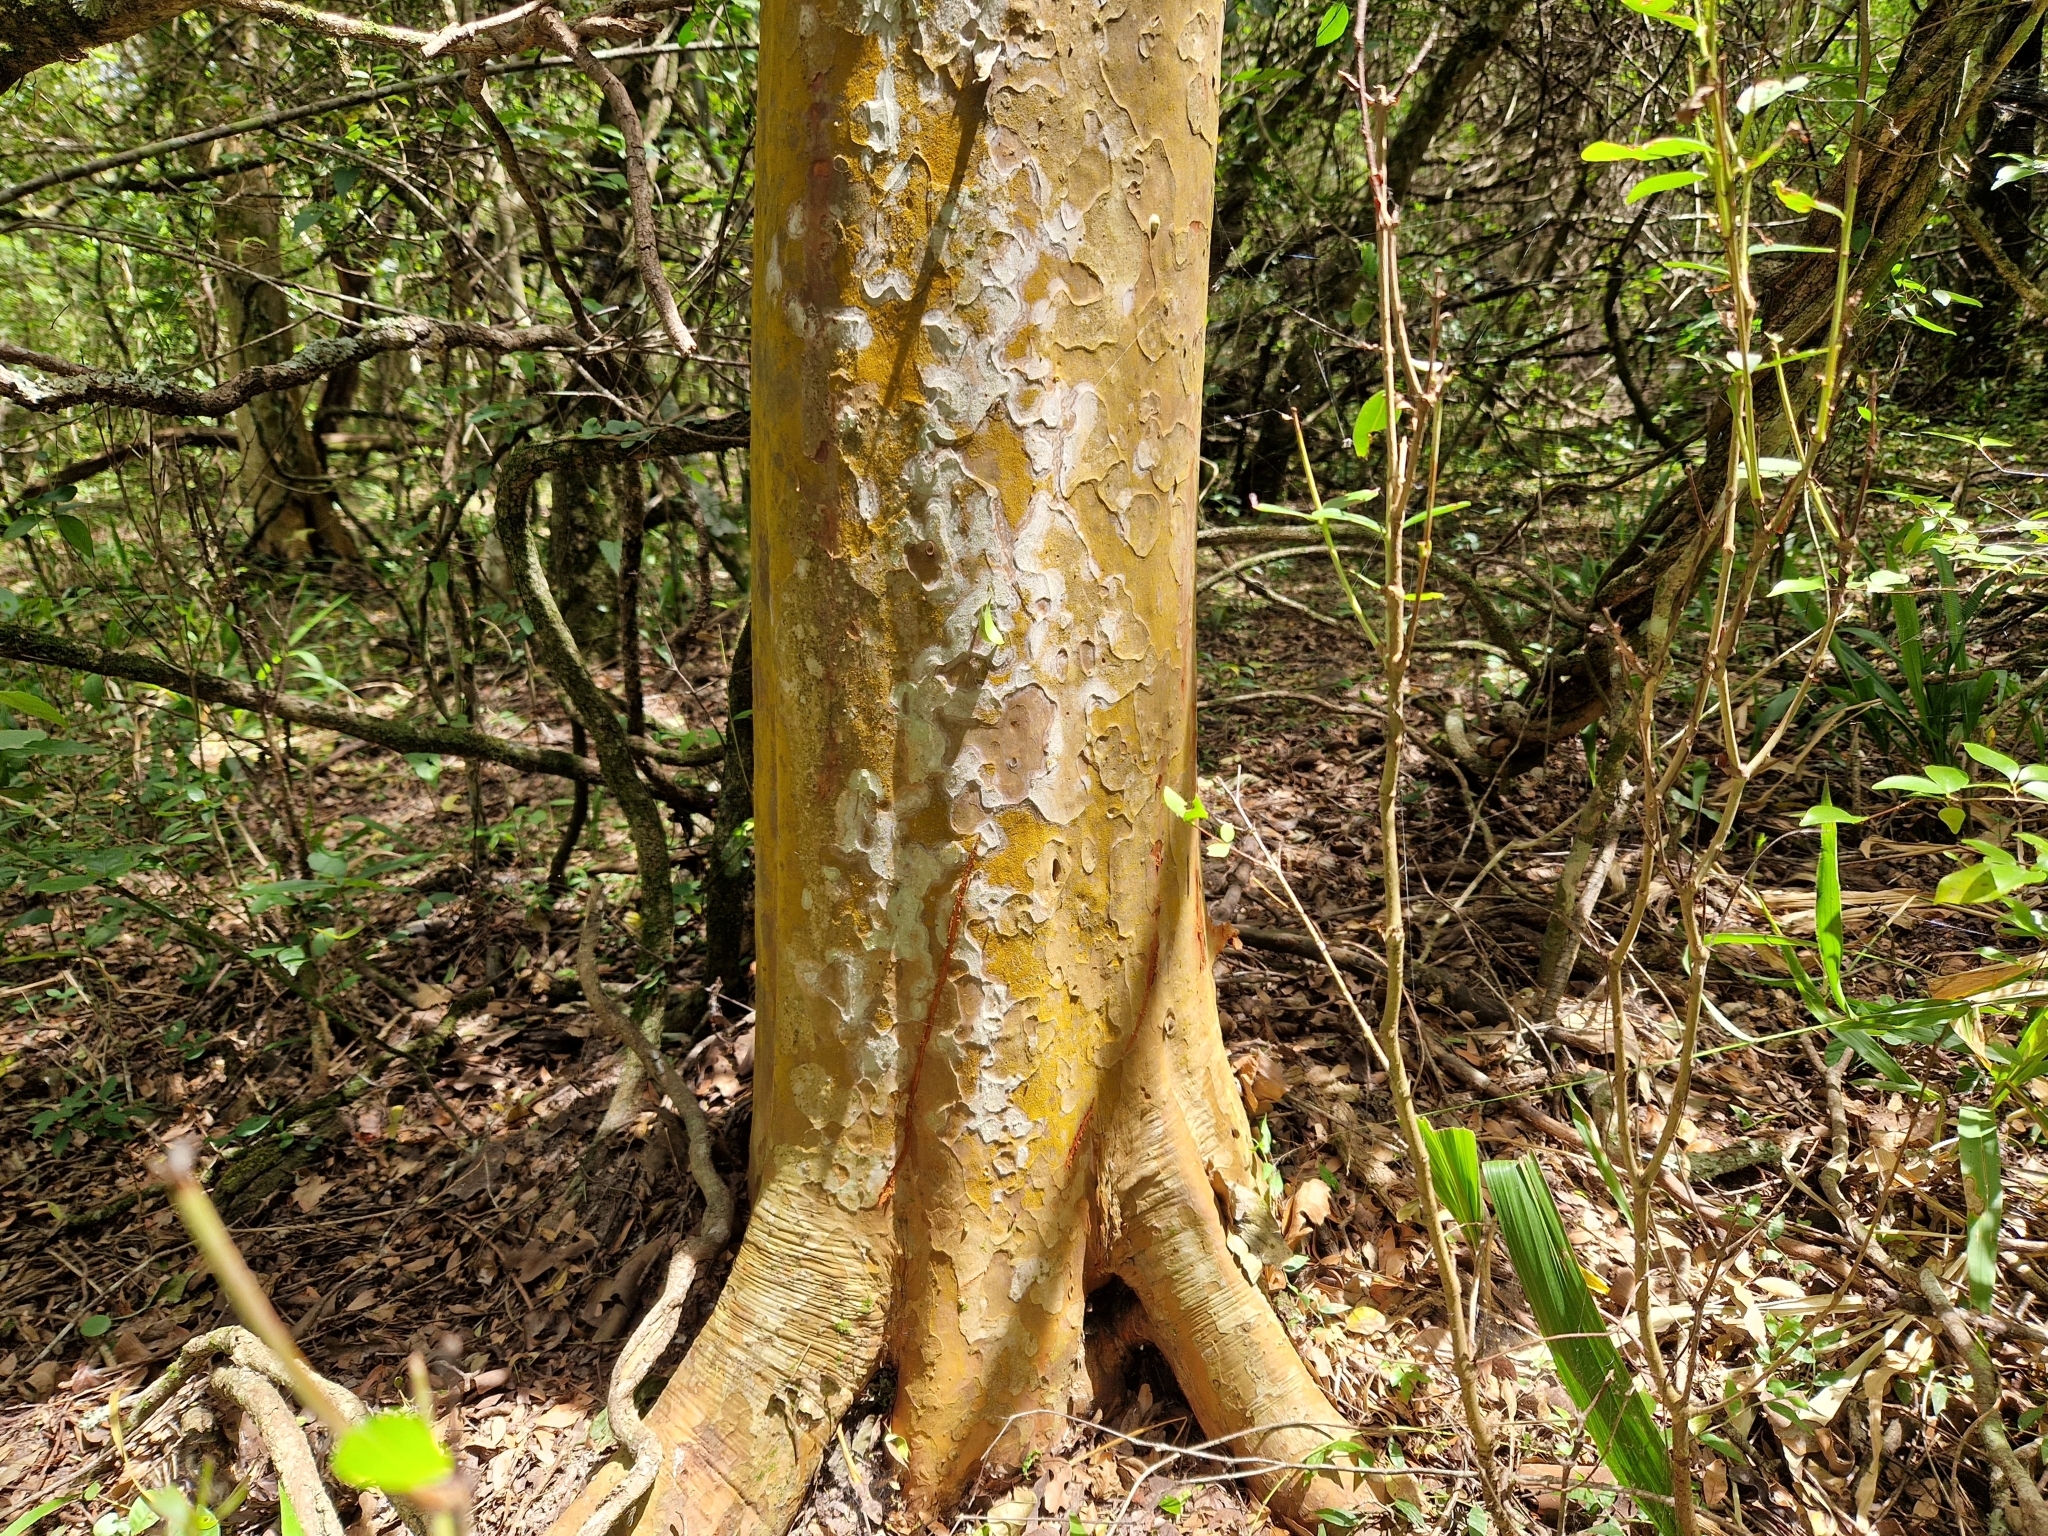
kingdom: Plantae
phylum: Tracheophyta
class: Magnoliopsida
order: Myrtales
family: Myrtaceae
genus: Myrcianthes
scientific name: Myrcianthes cisplatensis
